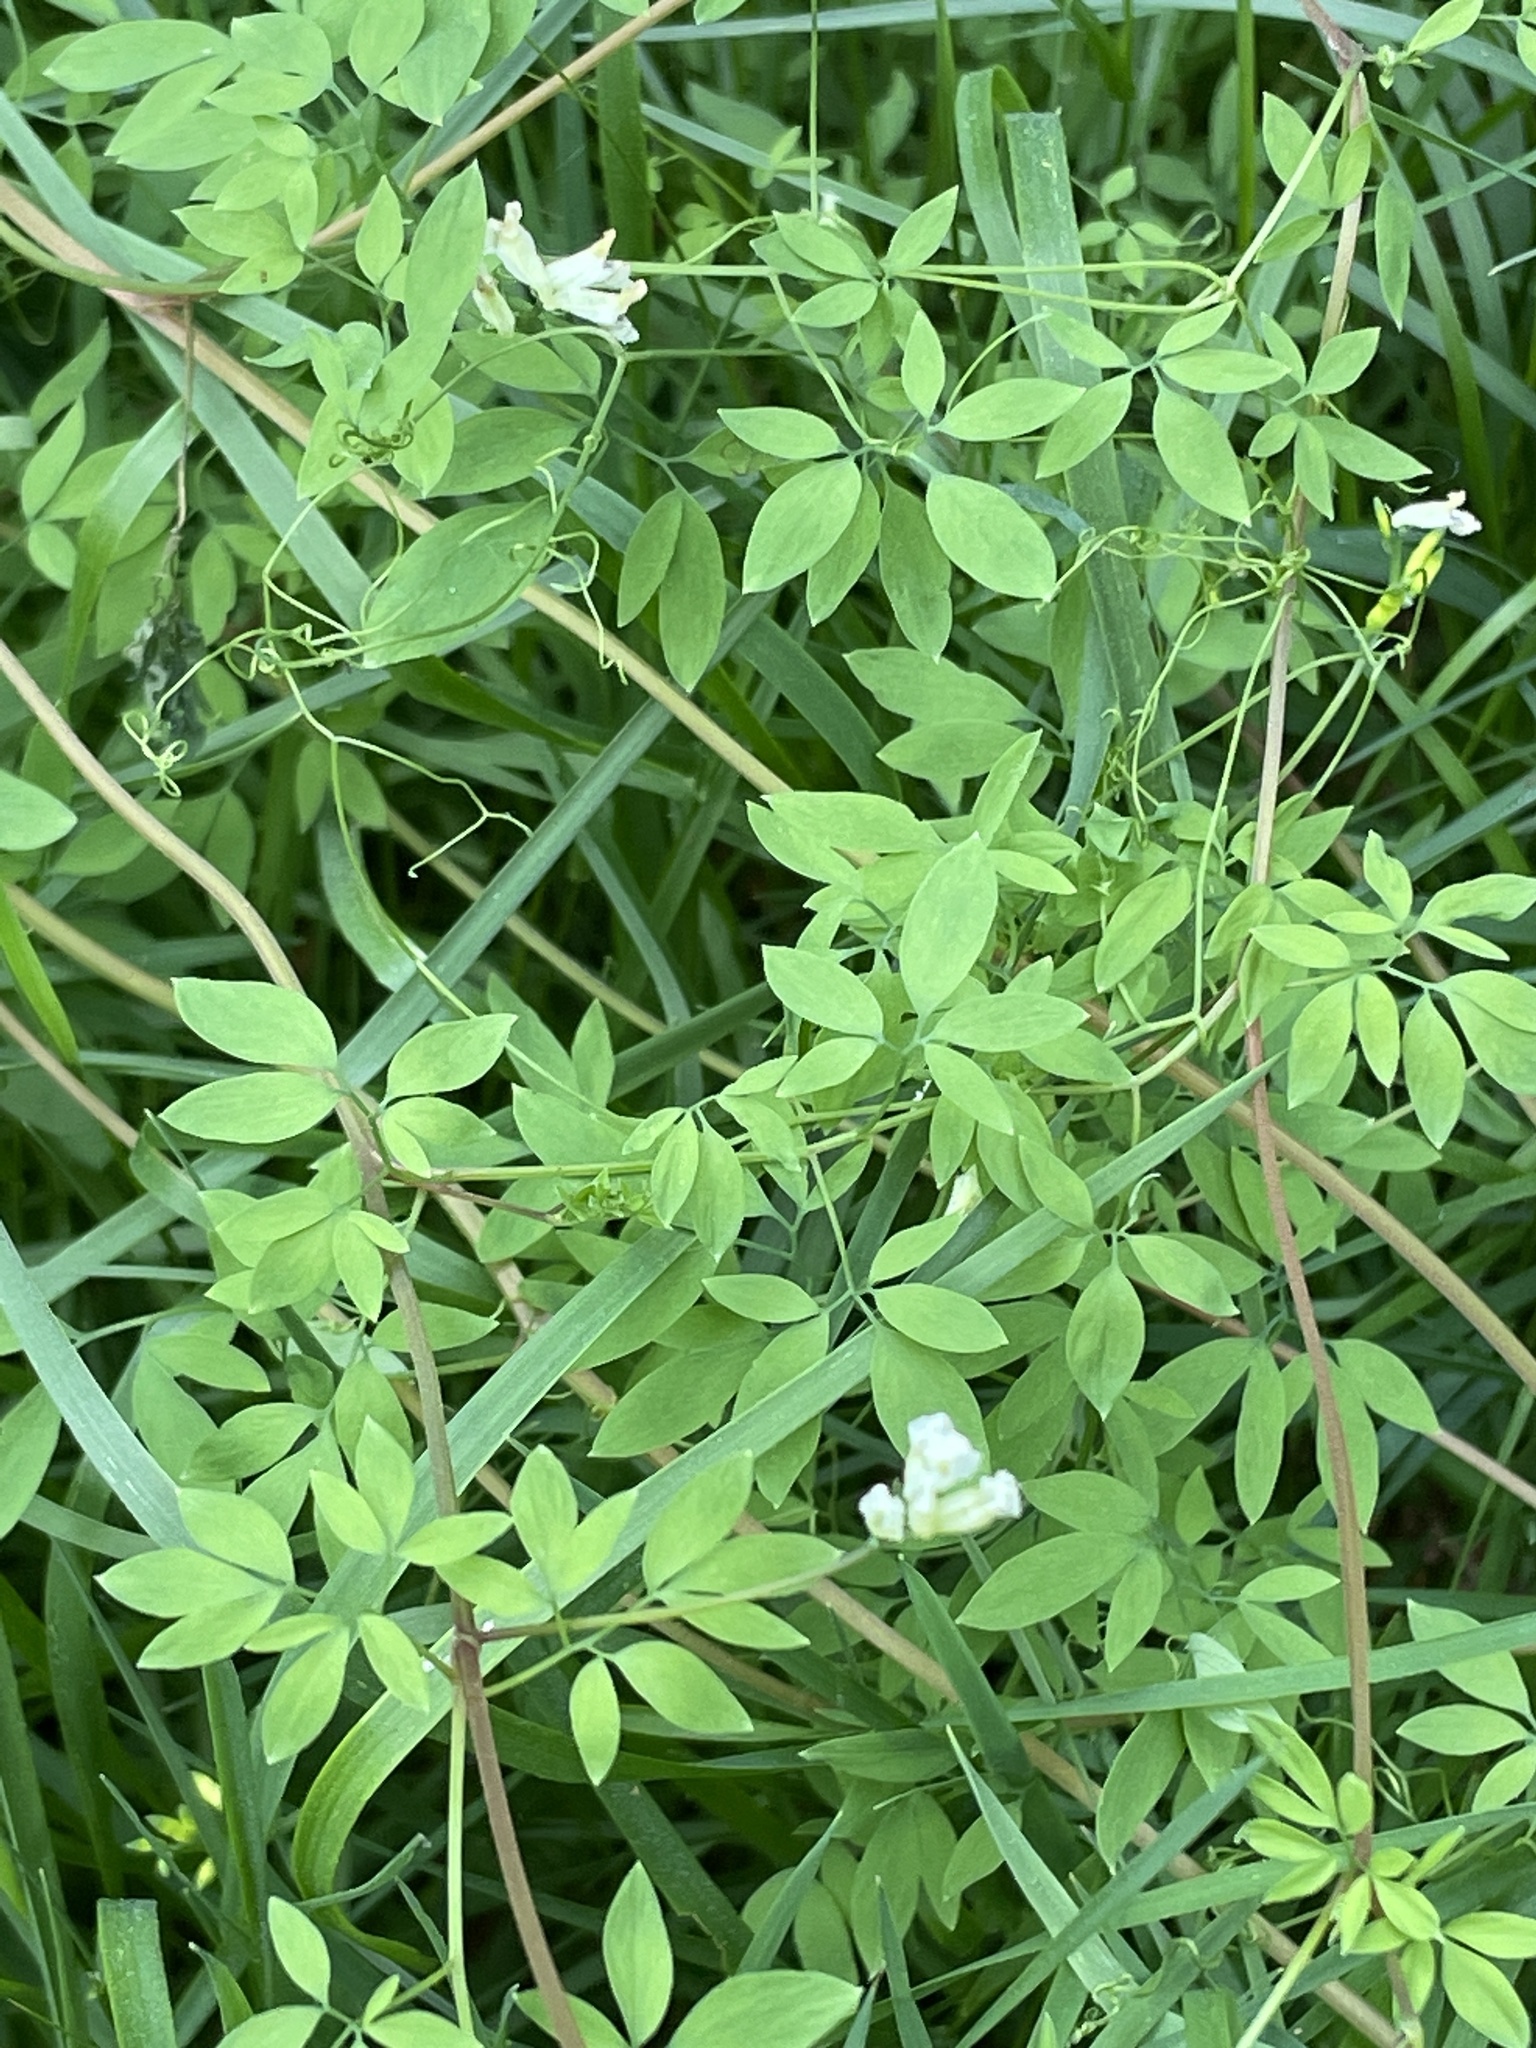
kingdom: Plantae
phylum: Tracheophyta
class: Magnoliopsida
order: Ranunculales
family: Papaveraceae
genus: Ceratocapnos
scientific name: Ceratocapnos claviculata
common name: Climbing corydalis
